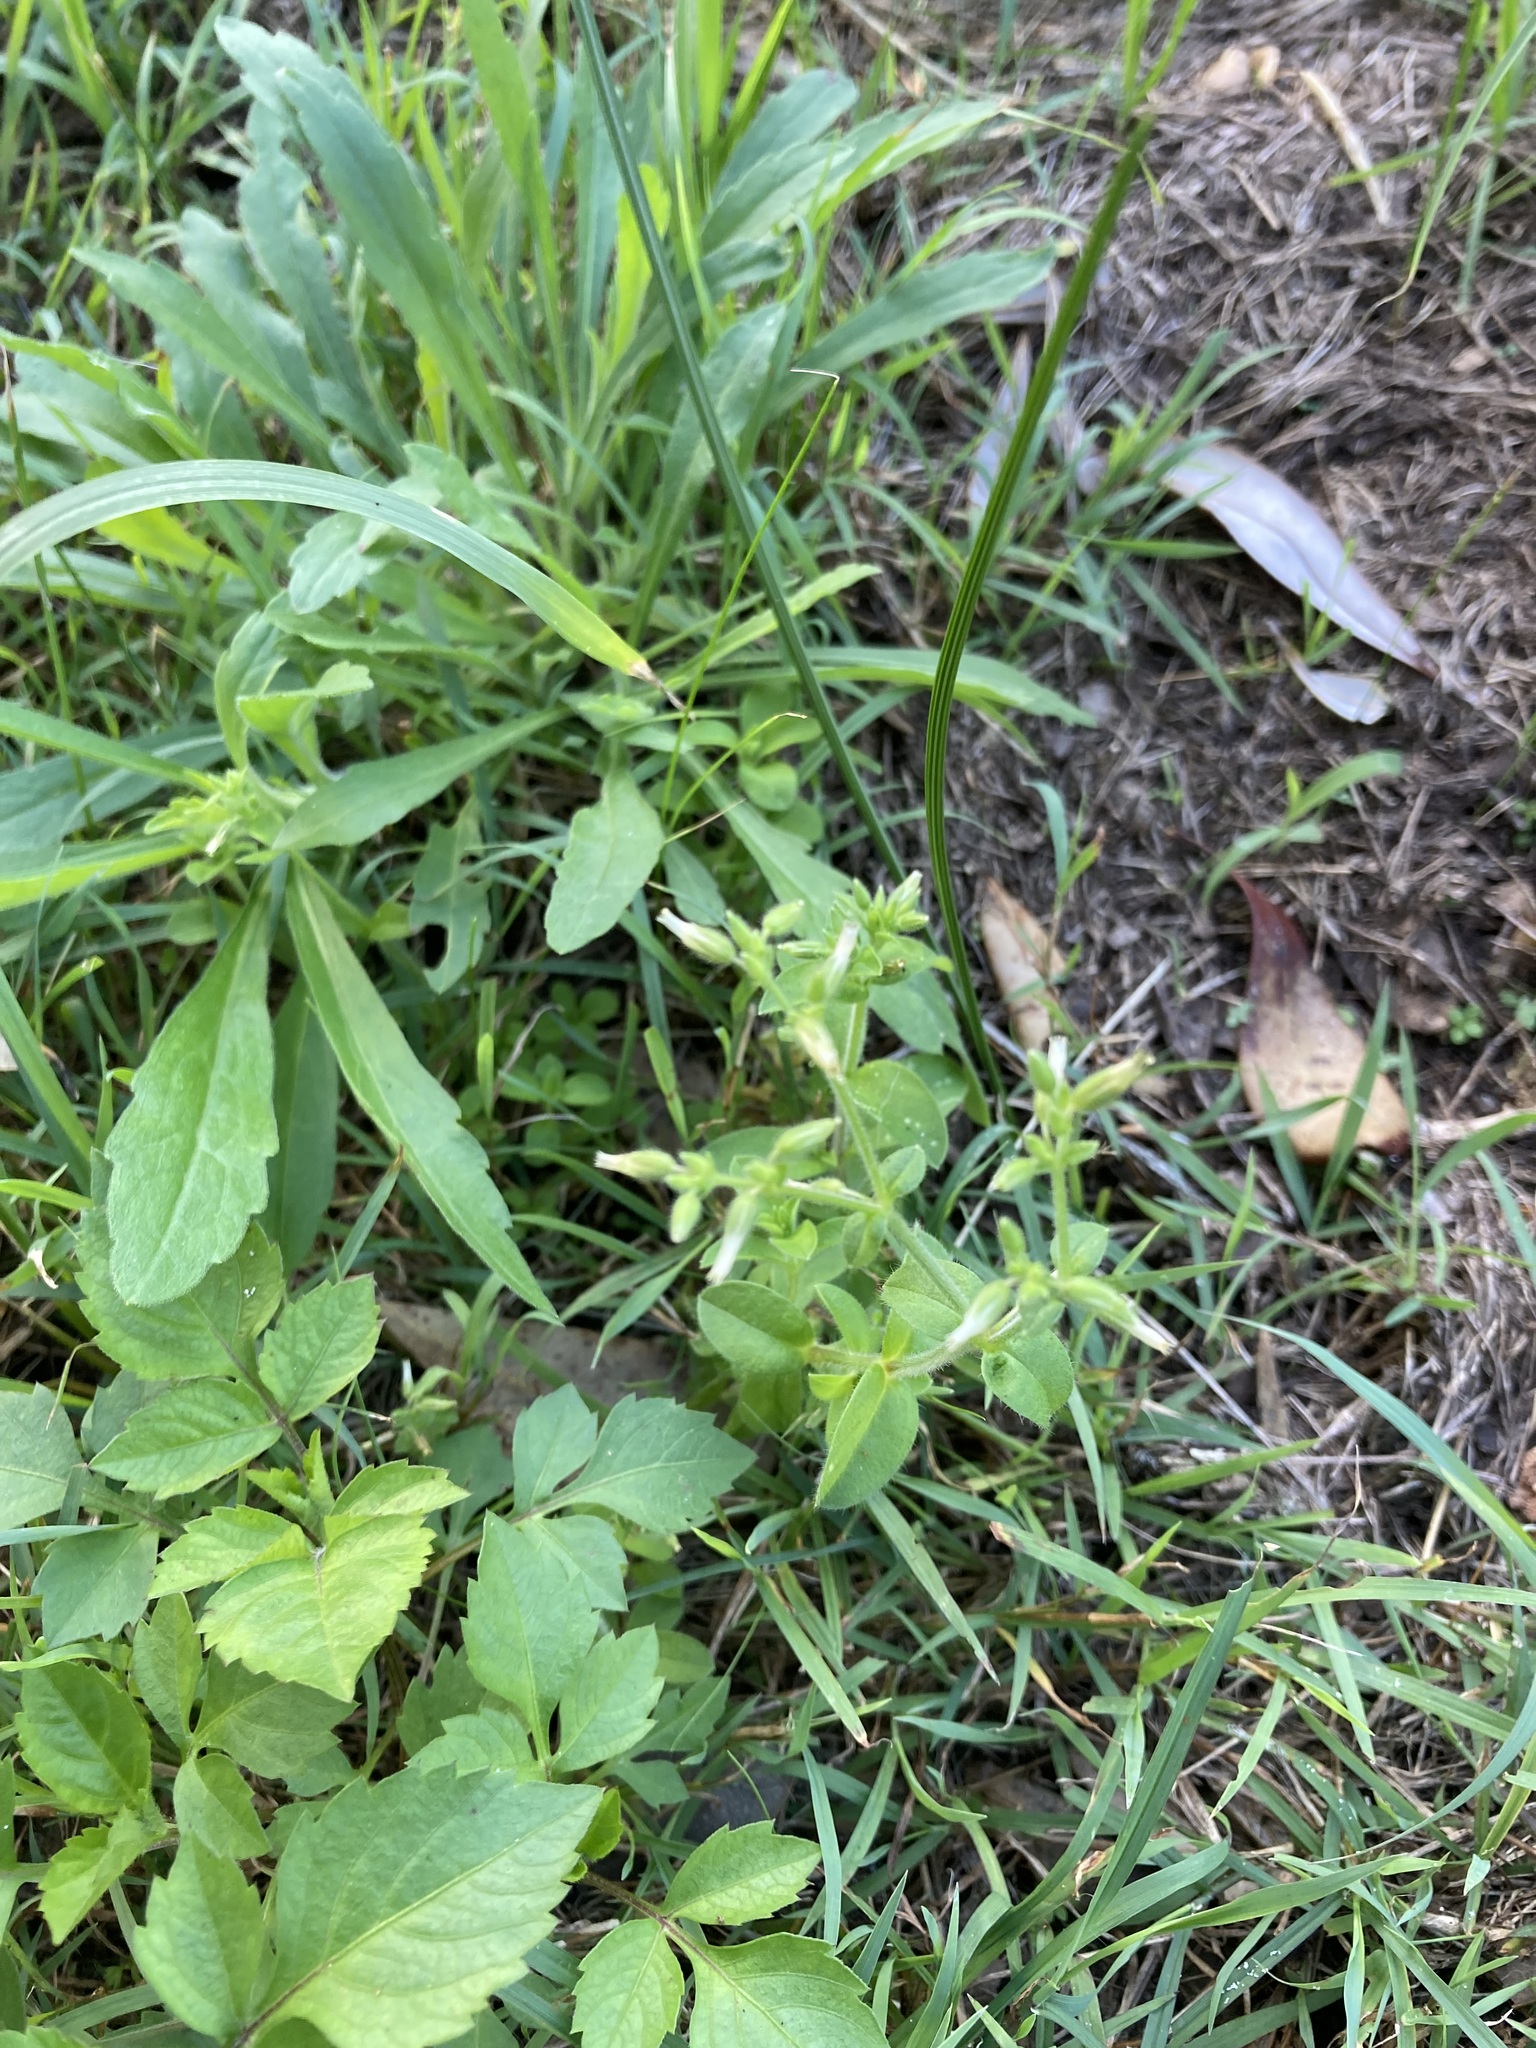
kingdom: Plantae
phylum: Tracheophyta
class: Magnoliopsida
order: Caryophyllales
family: Caryophyllaceae
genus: Cerastium
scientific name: Cerastium glomeratum
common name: Sticky chickweed
